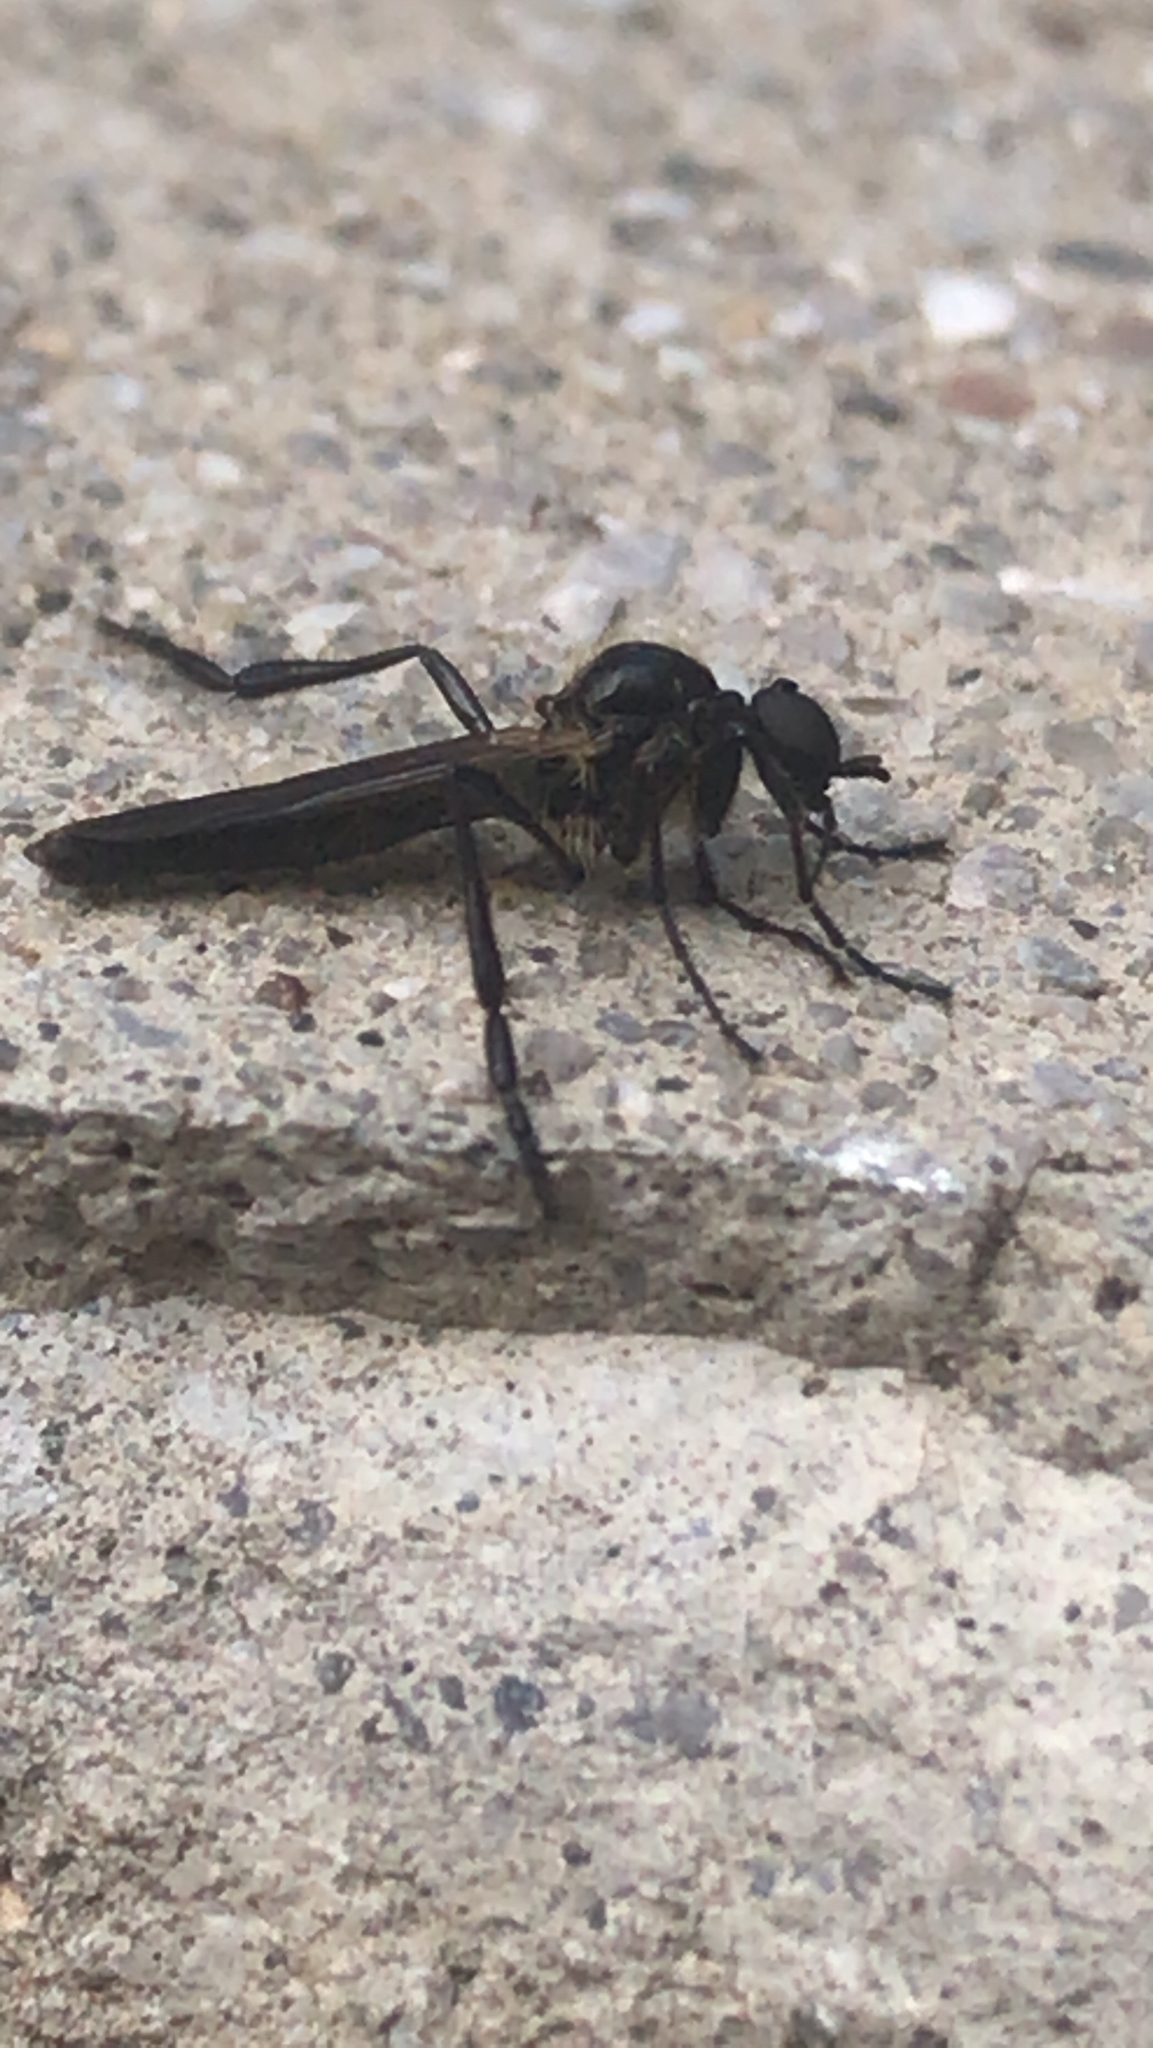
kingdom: Animalia
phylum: Arthropoda
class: Insecta
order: Diptera
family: Bibionidae
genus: Bibio
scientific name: Bibio longipes
